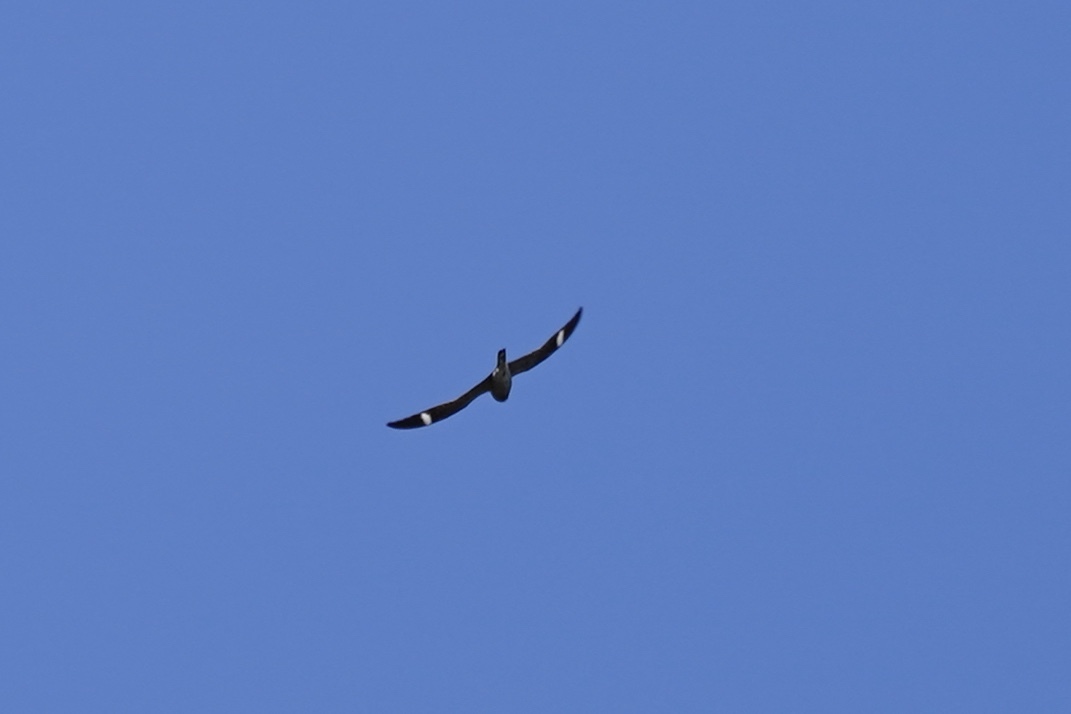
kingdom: Animalia
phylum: Chordata
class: Aves
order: Caprimulgiformes
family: Caprimulgidae
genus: Chordeiles
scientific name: Chordeiles minor
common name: Common nighthawk
